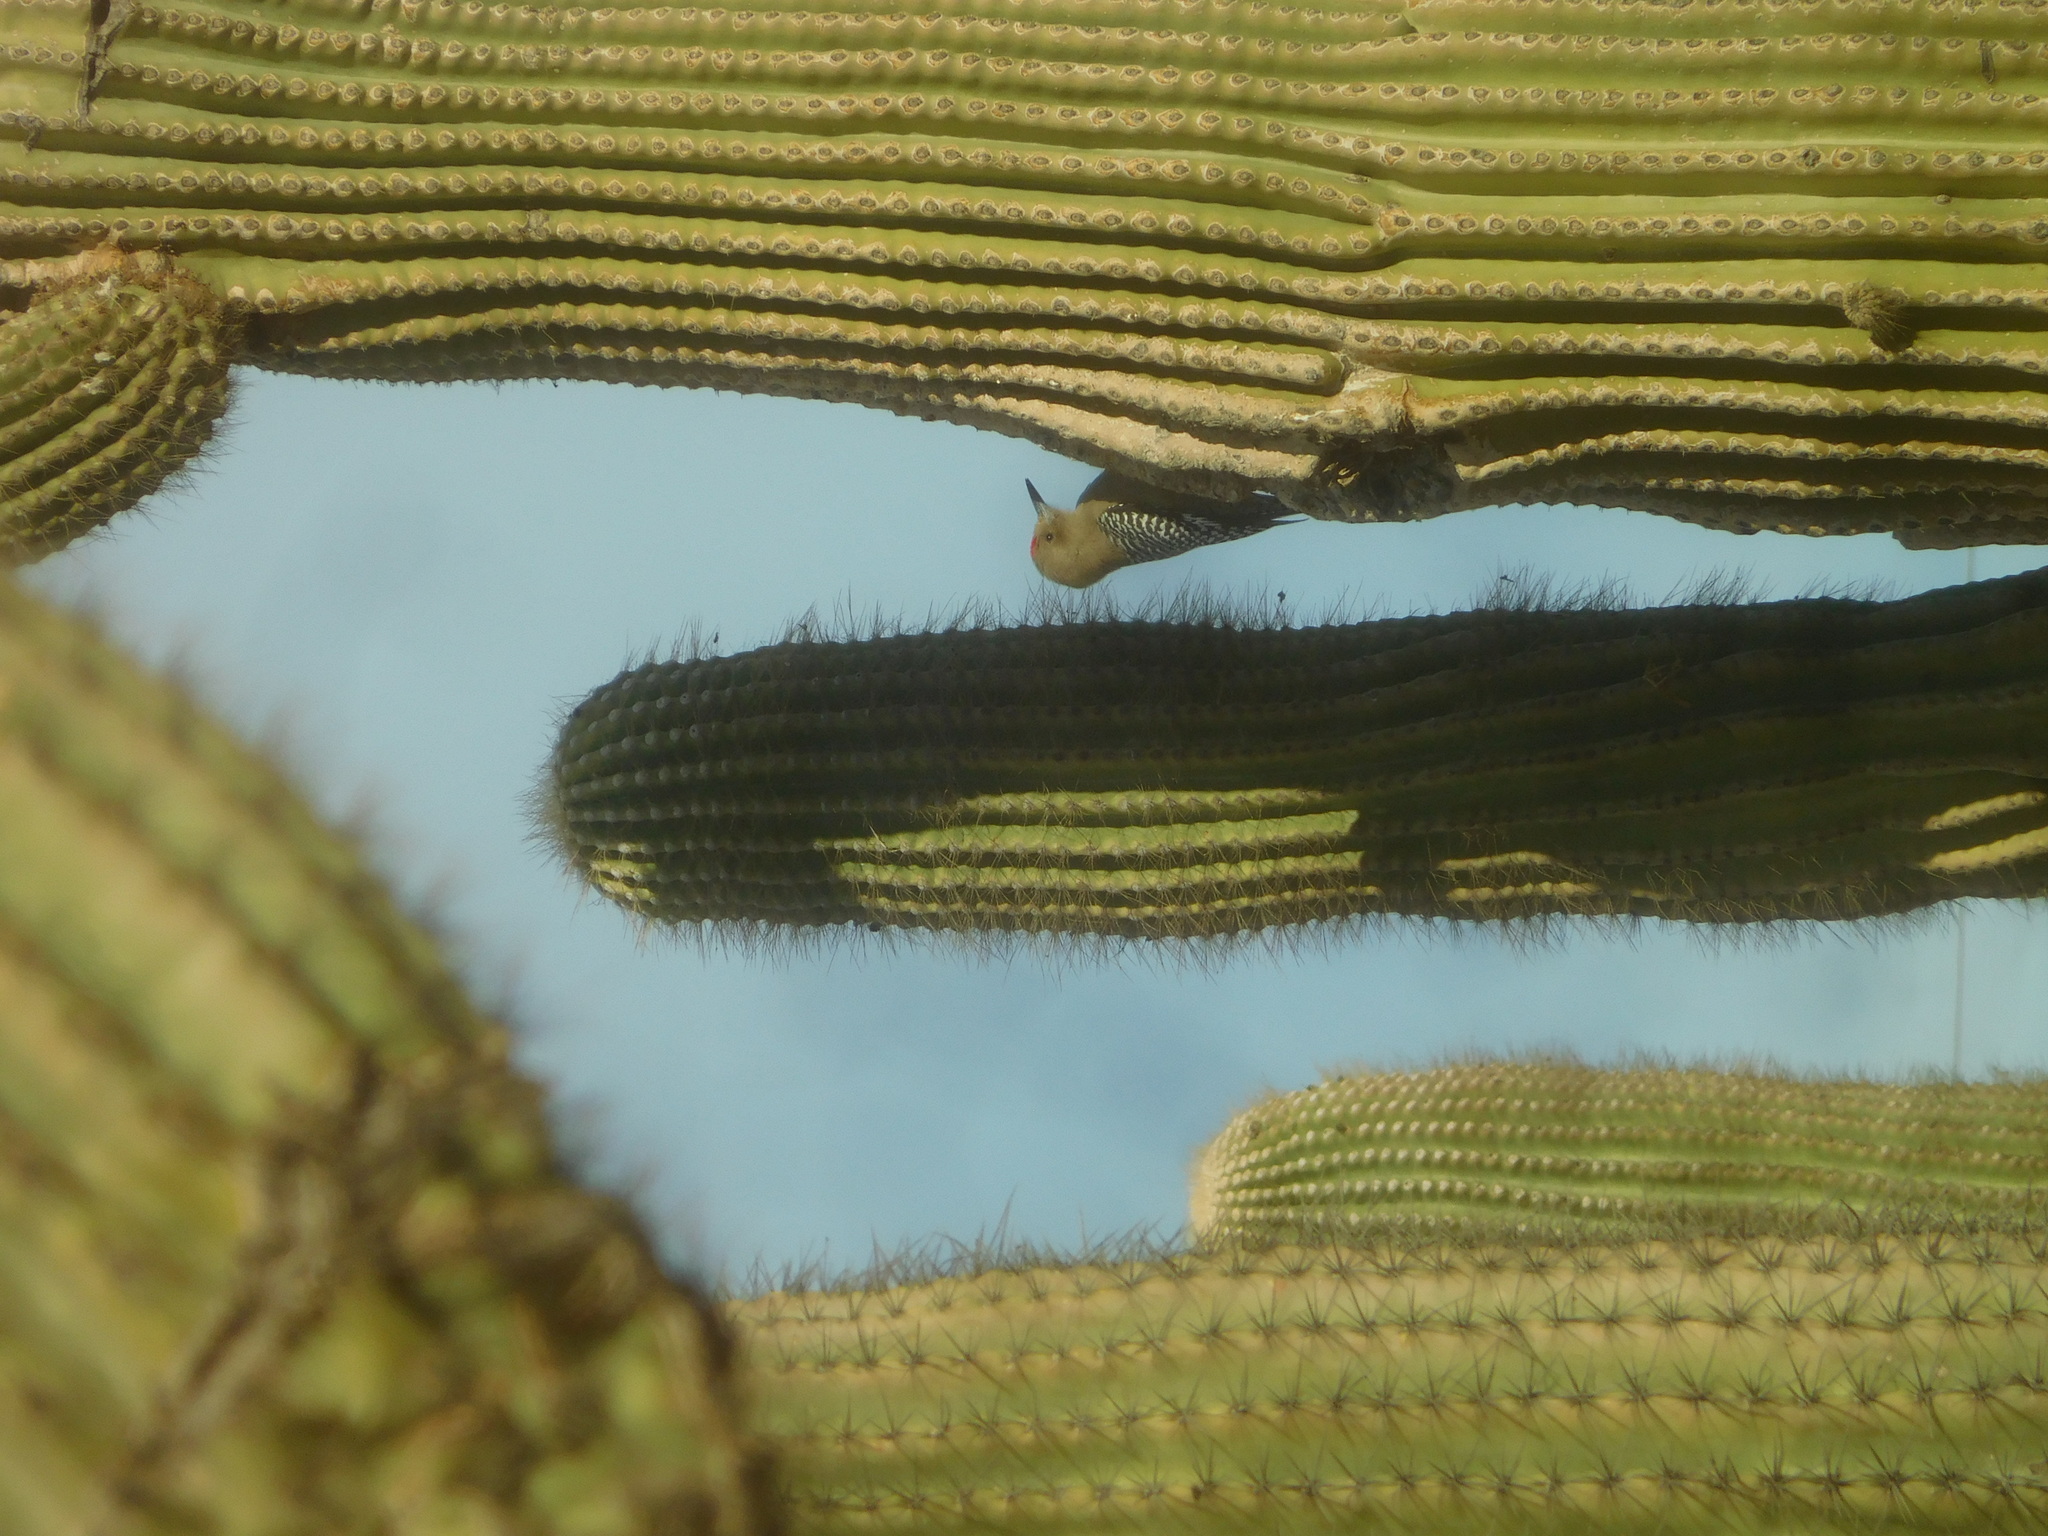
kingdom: Animalia
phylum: Chordata
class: Aves
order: Piciformes
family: Picidae
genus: Melanerpes
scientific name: Melanerpes uropygialis
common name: Gila woodpecker
